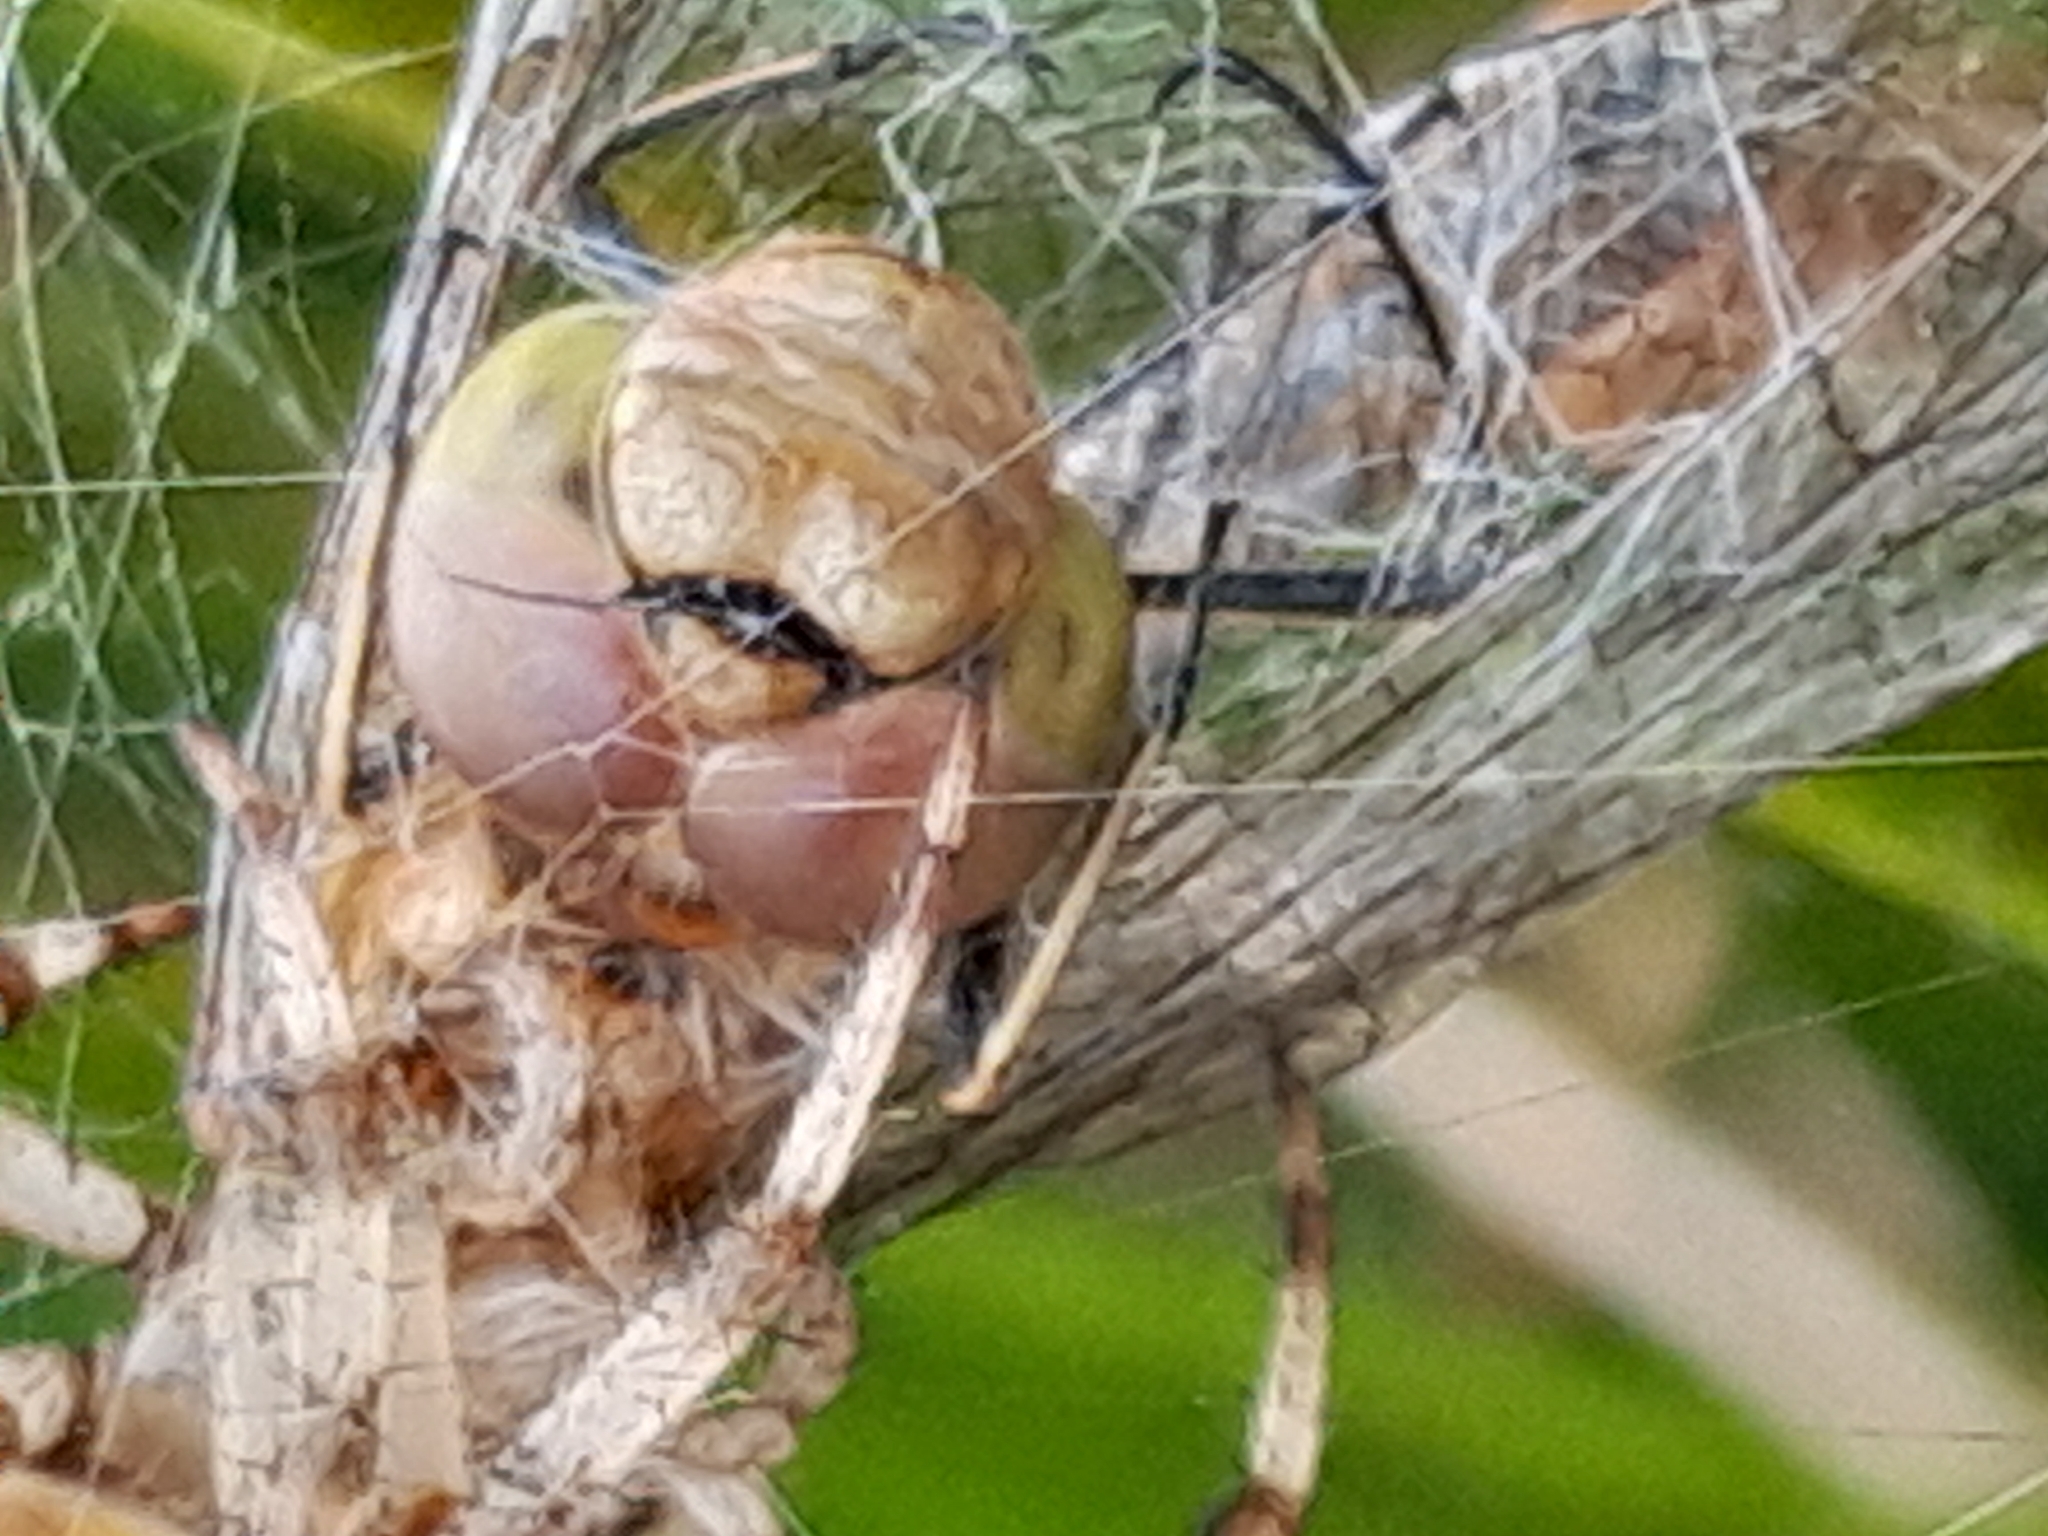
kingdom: Animalia
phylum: Arthropoda
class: Insecta
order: Odonata
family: Libellulidae
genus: Sympetrum
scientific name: Sympetrum striolatum
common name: Common darter
